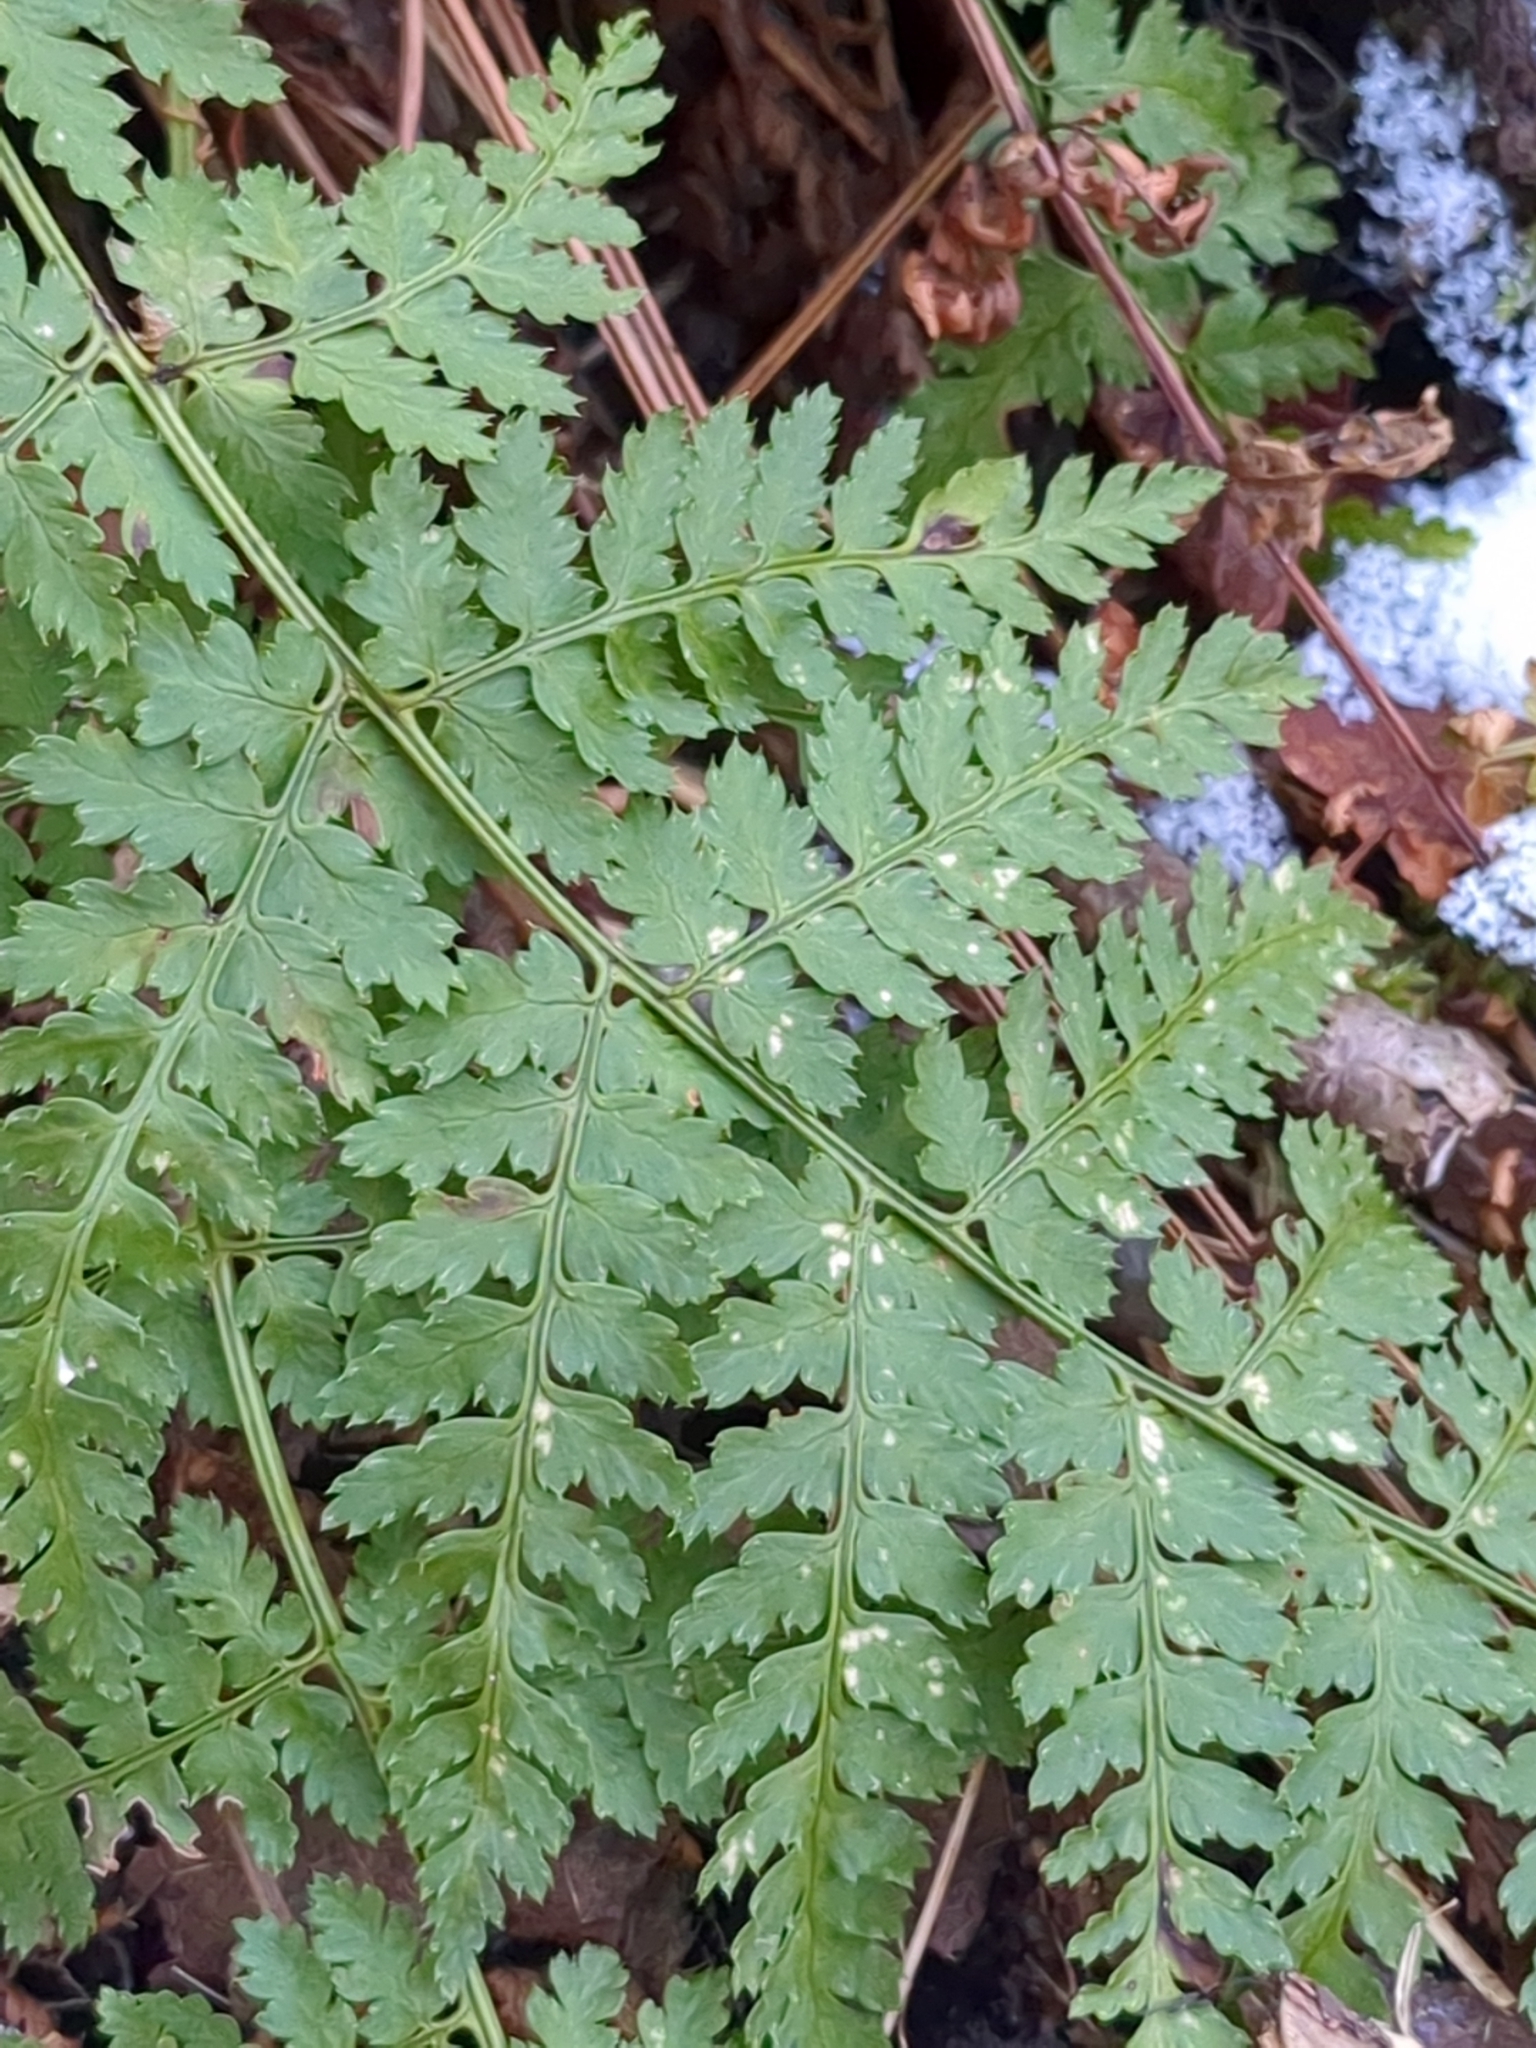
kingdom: Plantae
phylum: Tracheophyta
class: Polypodiopsida
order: Polypodiales
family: Dryopteridaceae
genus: Dryopteris
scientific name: Dryopteris intermedia
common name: Evergreen wood fern
